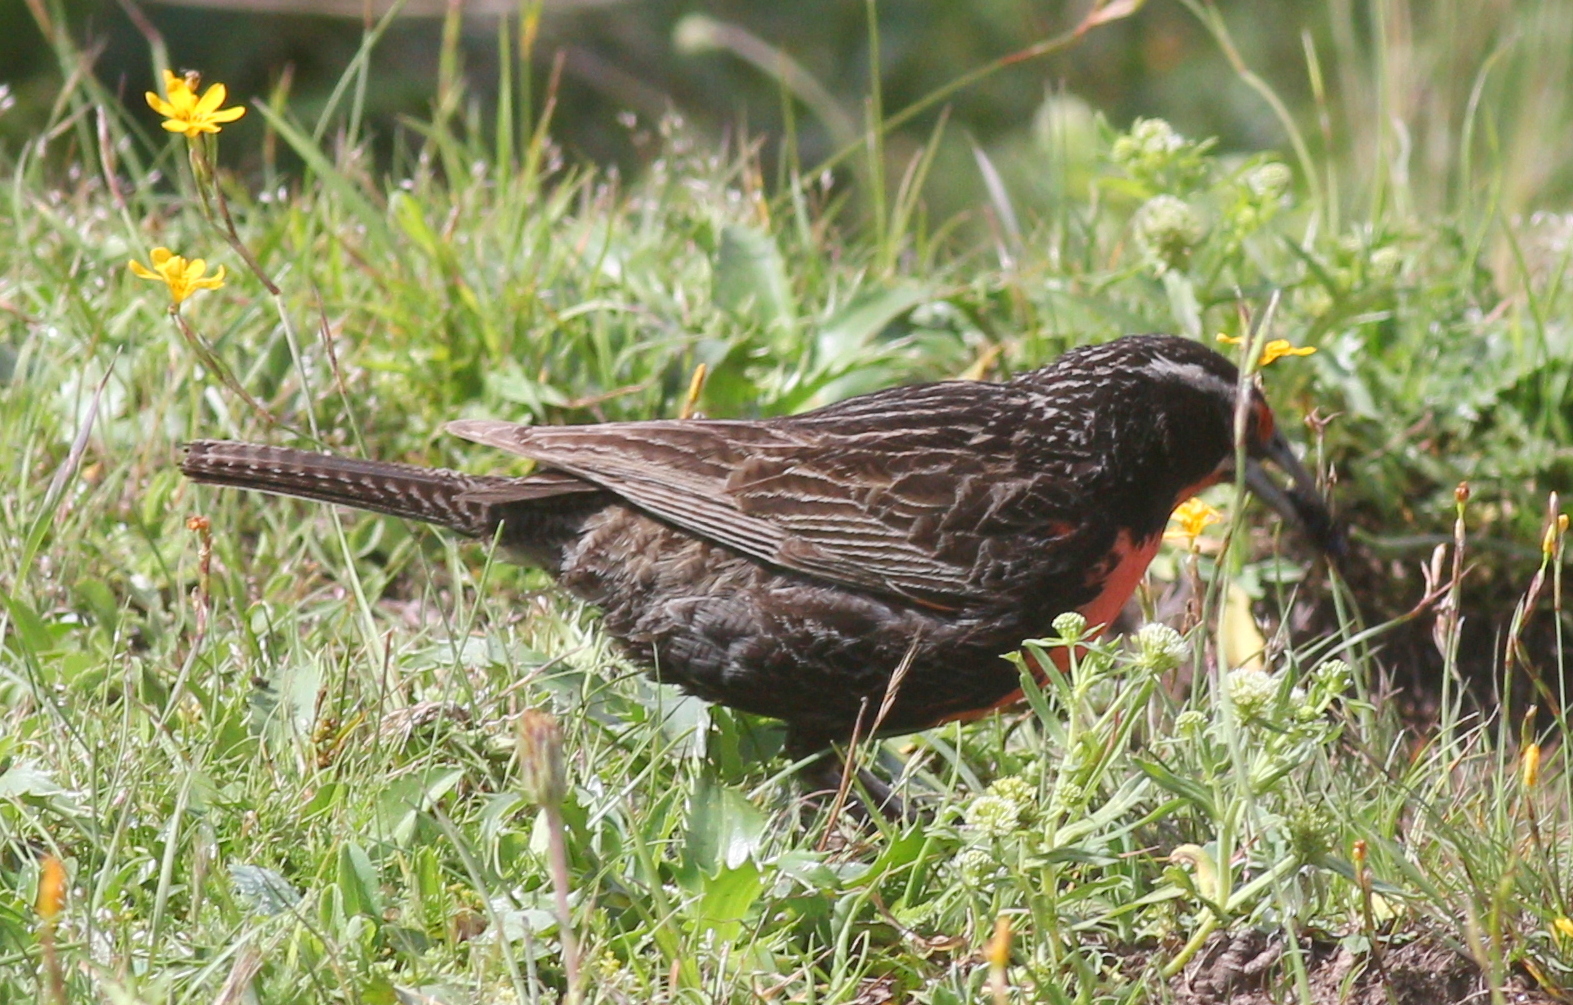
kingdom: Animalia
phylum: Chordata
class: Aves
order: Passeriformes
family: Icteridae
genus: Sturnella
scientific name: Sturnella loyca
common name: Long-tailed meadowlark
